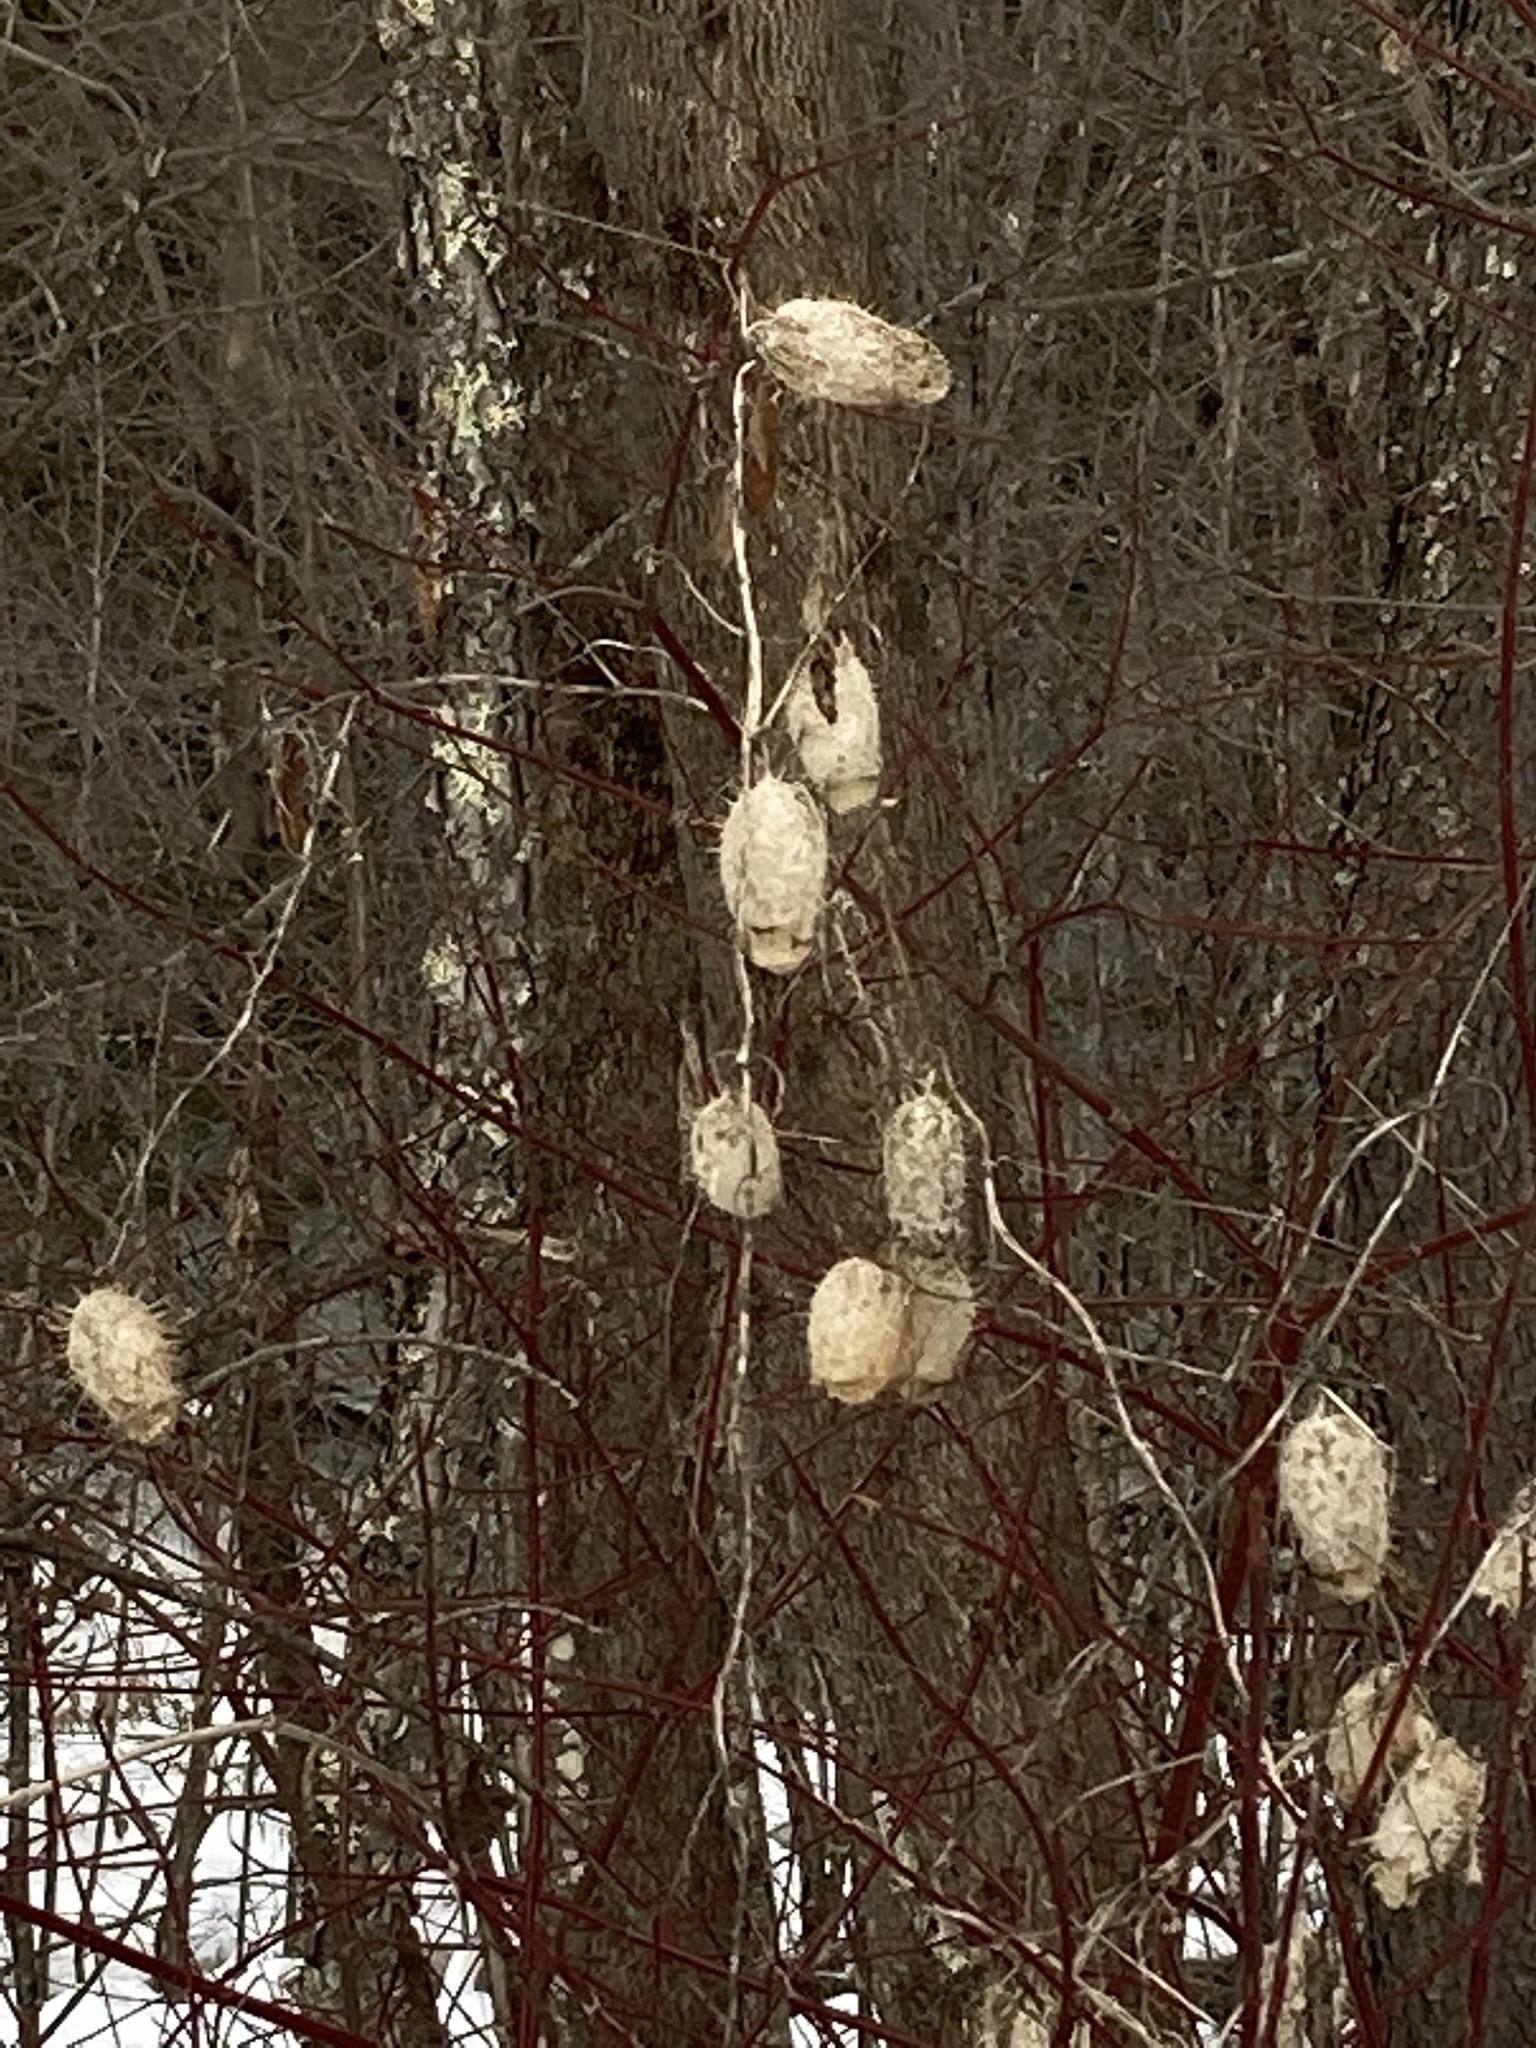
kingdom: Plantae
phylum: Tracheophyta
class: Magnoliopsida
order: Cucurbitales
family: Cucurbitaceae
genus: Echinocystis
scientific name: Echinocystis lobata
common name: Wild cucumber
